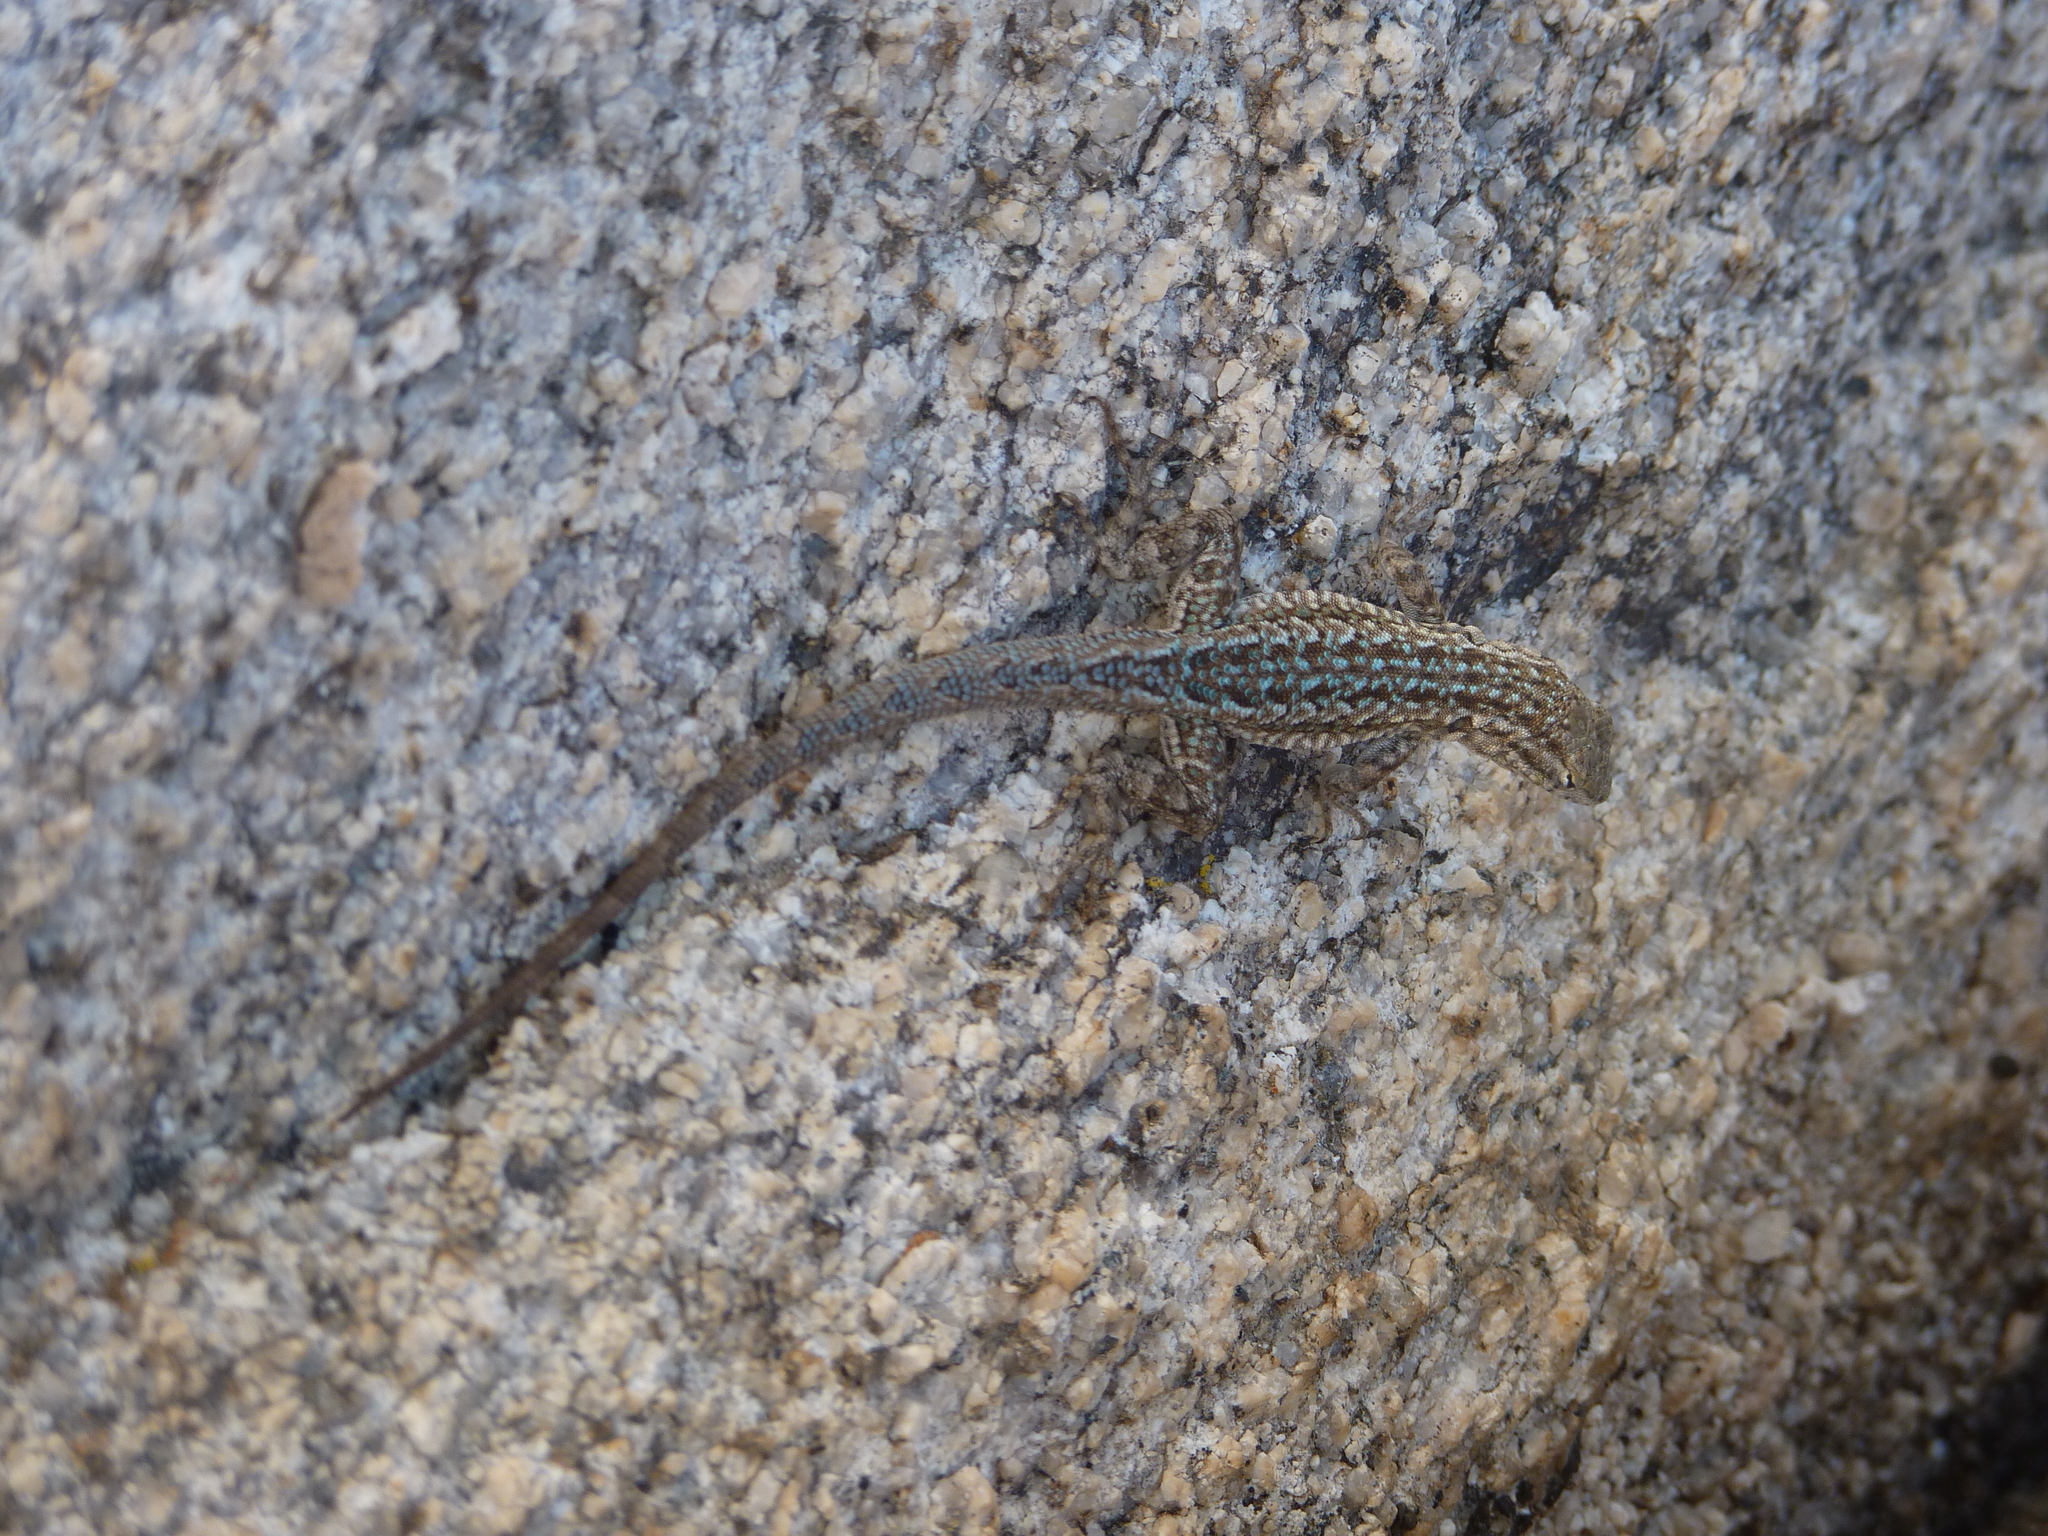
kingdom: Animalia
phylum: Chordata
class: Squamata
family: Phrynosomatidae
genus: Uta
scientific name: Uta stansburiana
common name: Side-blotched lizard
